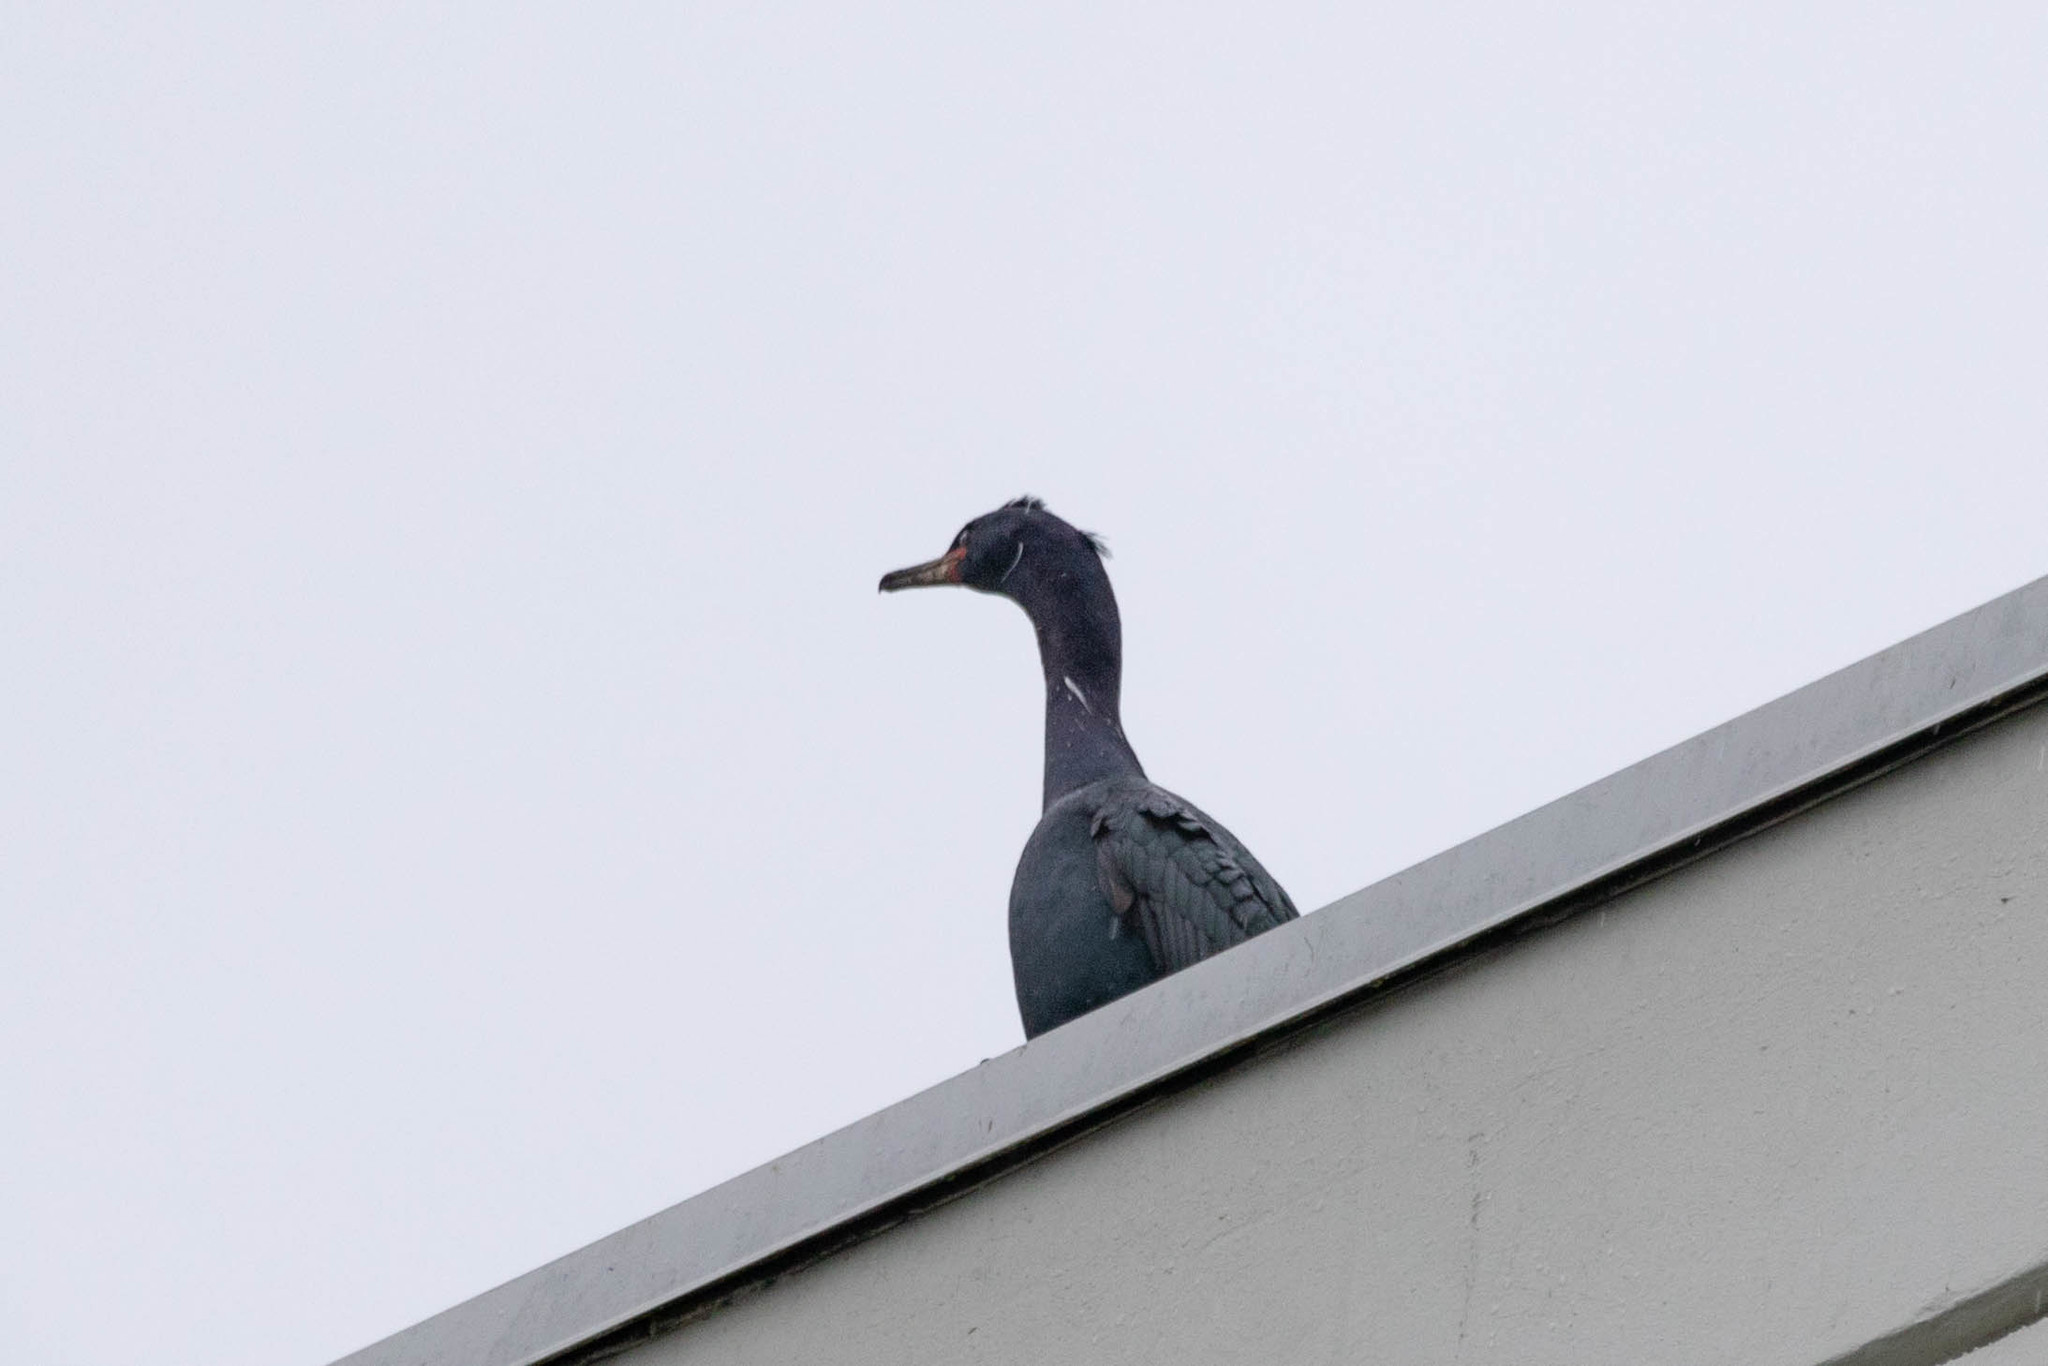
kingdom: Animalia
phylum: Chordata
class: Aves
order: Suliformes
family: Phalacrocoracidae
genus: Phalacrocorax
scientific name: Phalacrocorax pelagicus
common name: Pelagic cormorant
